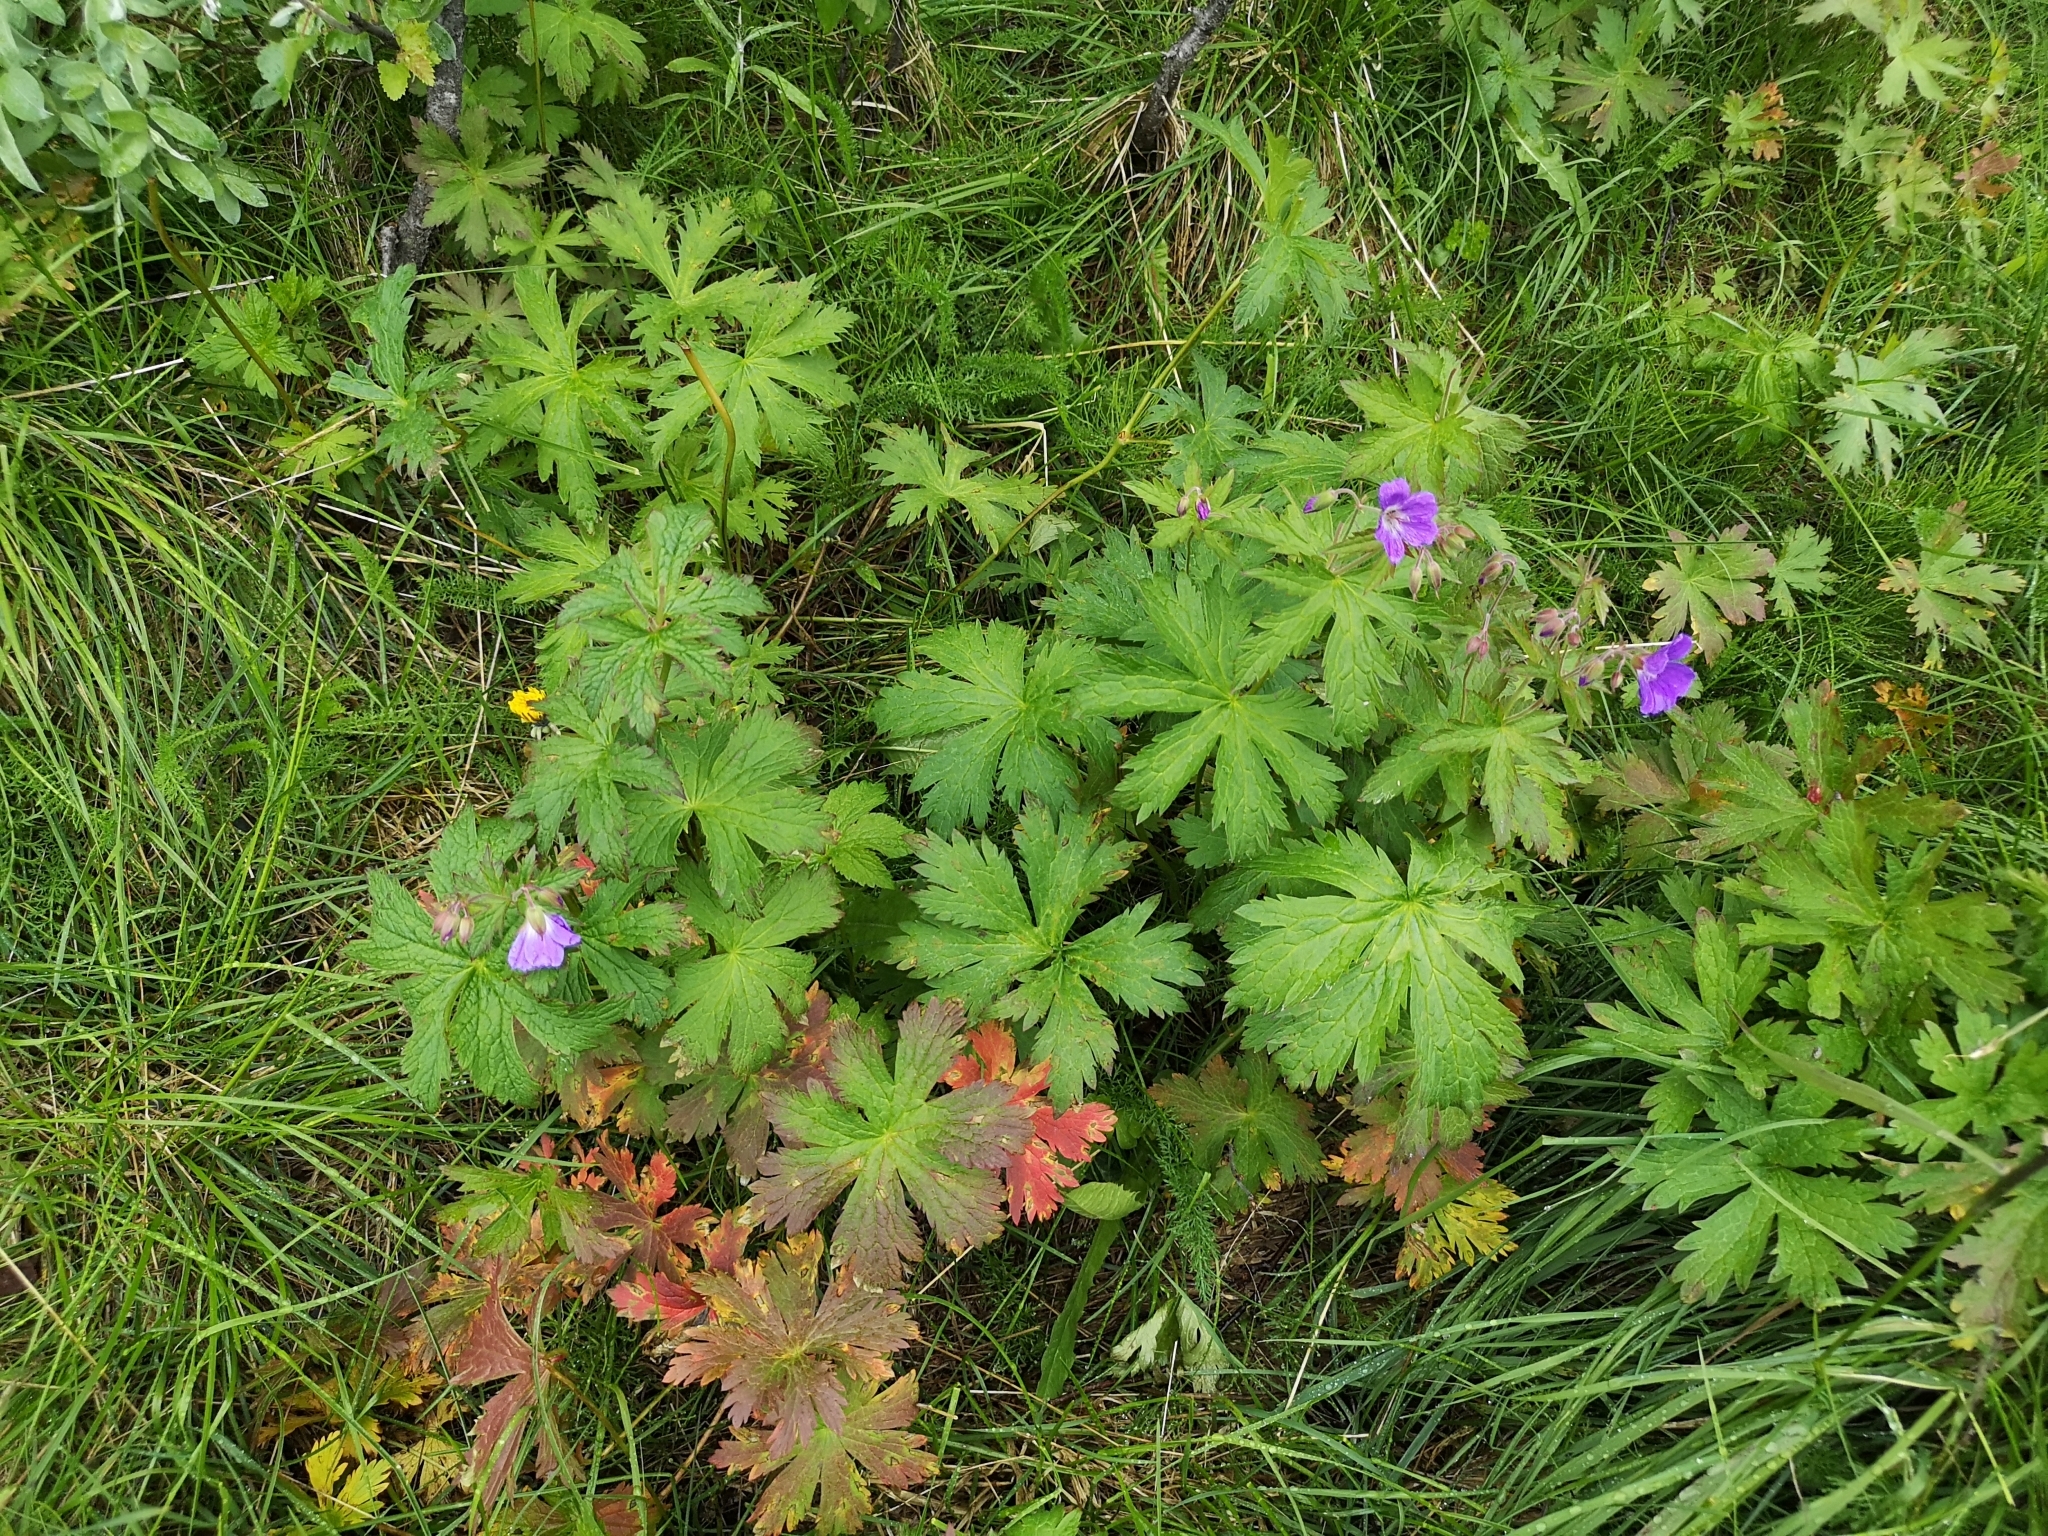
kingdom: Plantae
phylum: Tracheophyta
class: Magnoliopsida
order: Geraniales
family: Geraniaceae
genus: Geranium
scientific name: Geranium sylvaticum
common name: Wood crane's-bill
